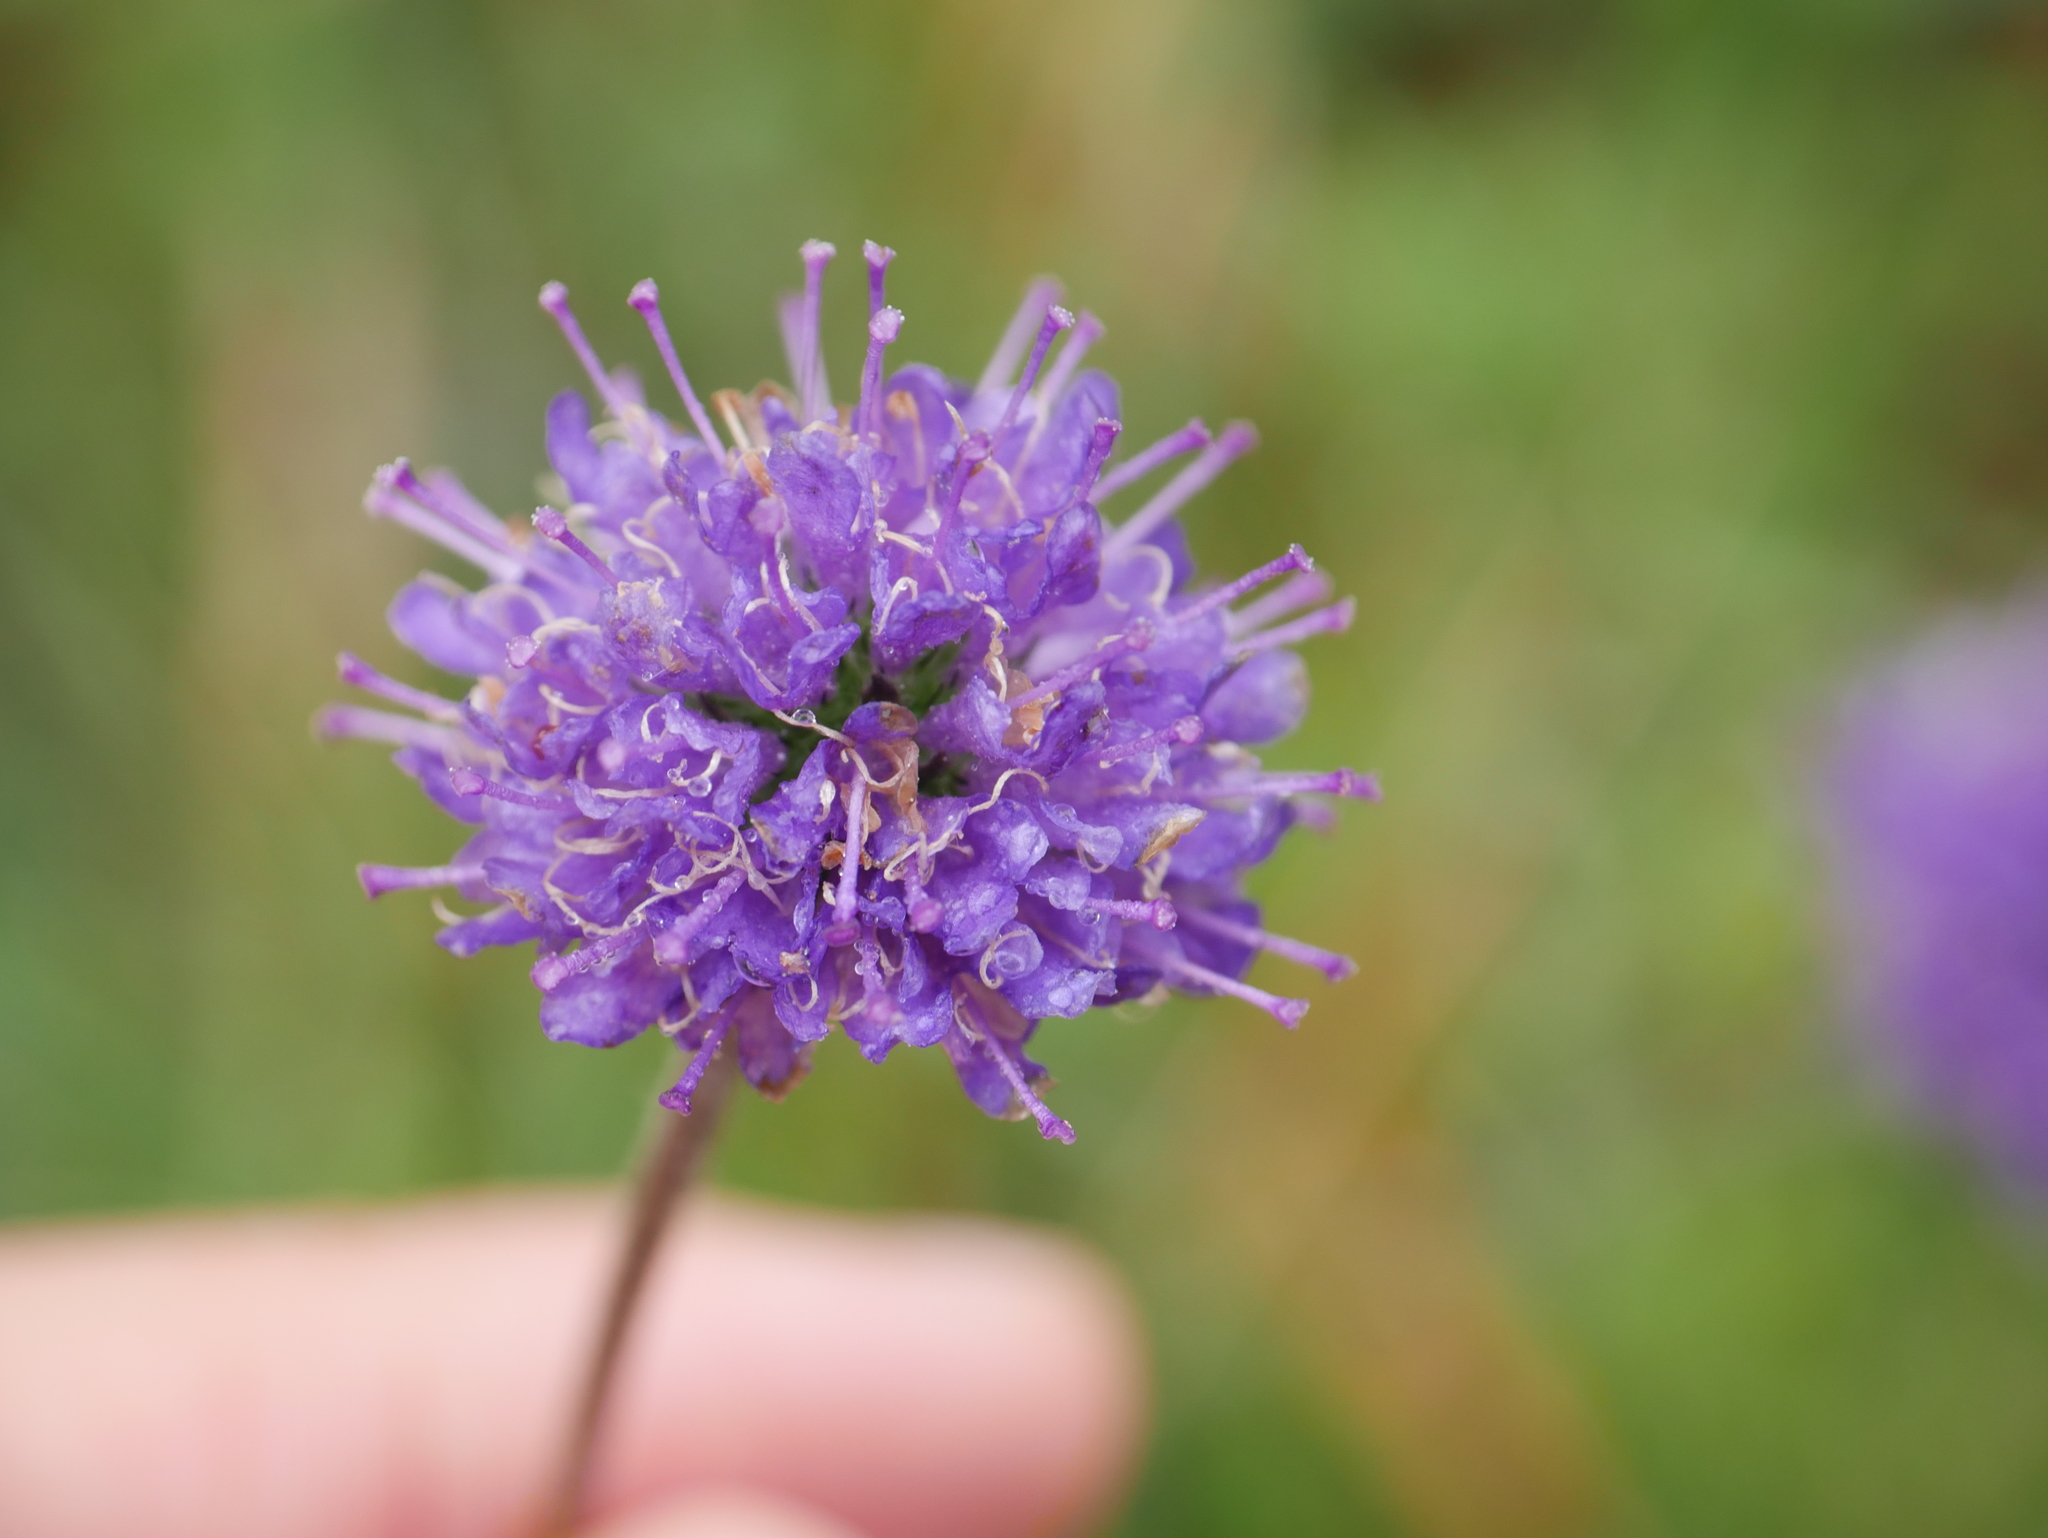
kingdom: Plantae
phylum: Tracheophyta
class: Magnoliopsida
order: Dipsacales
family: Caprifoliaceae
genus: Succisa
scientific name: Succisa pratensis
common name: Devil's-bit
